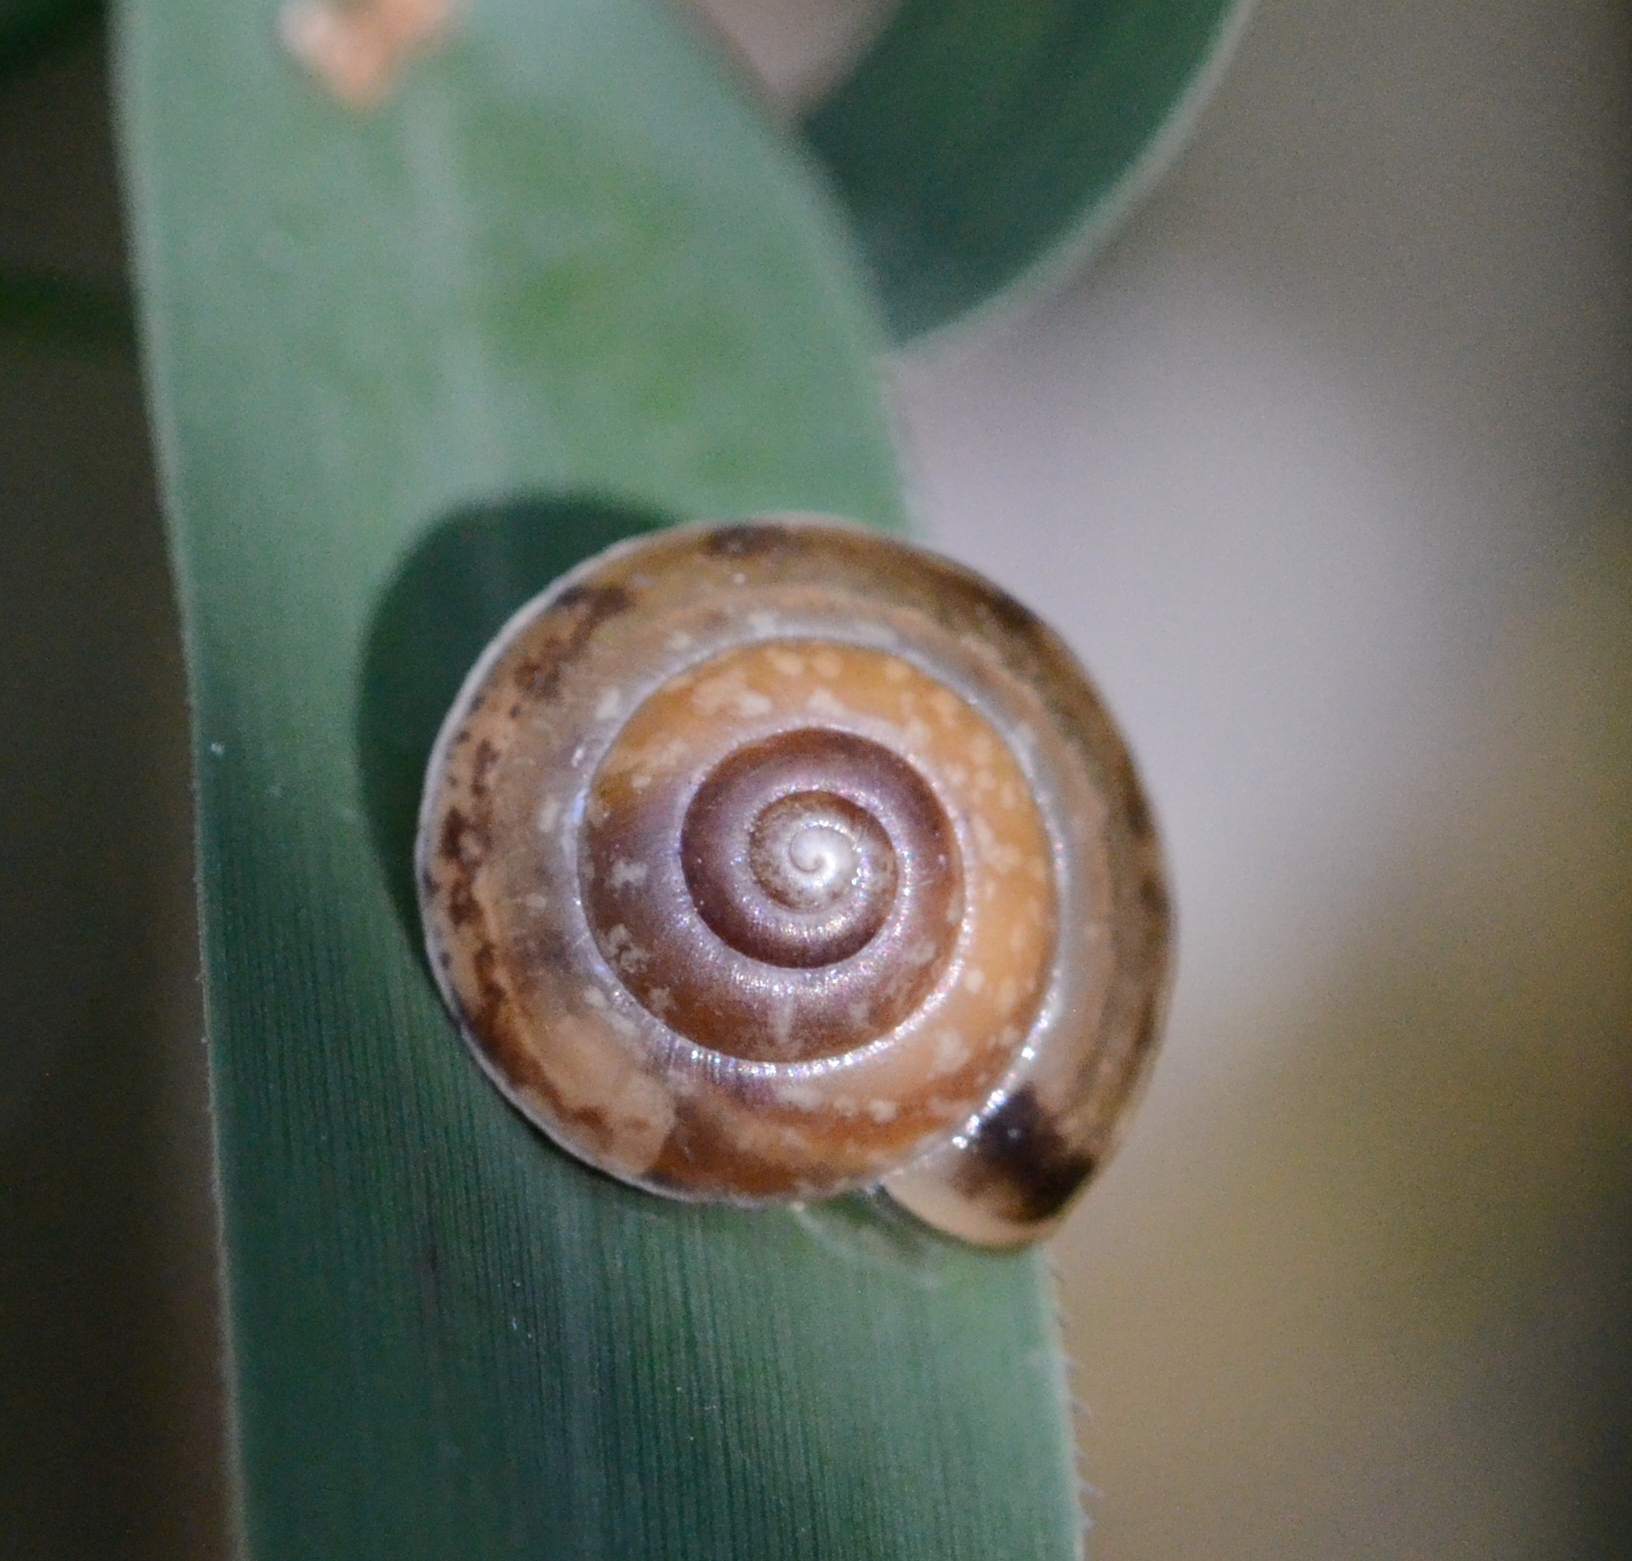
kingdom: Animalia
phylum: Mollusca
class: Gastropoda
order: Stylommatophora
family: Hygromiidae
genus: Hygromia
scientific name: Hygromia cinctella
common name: Girdled snail
